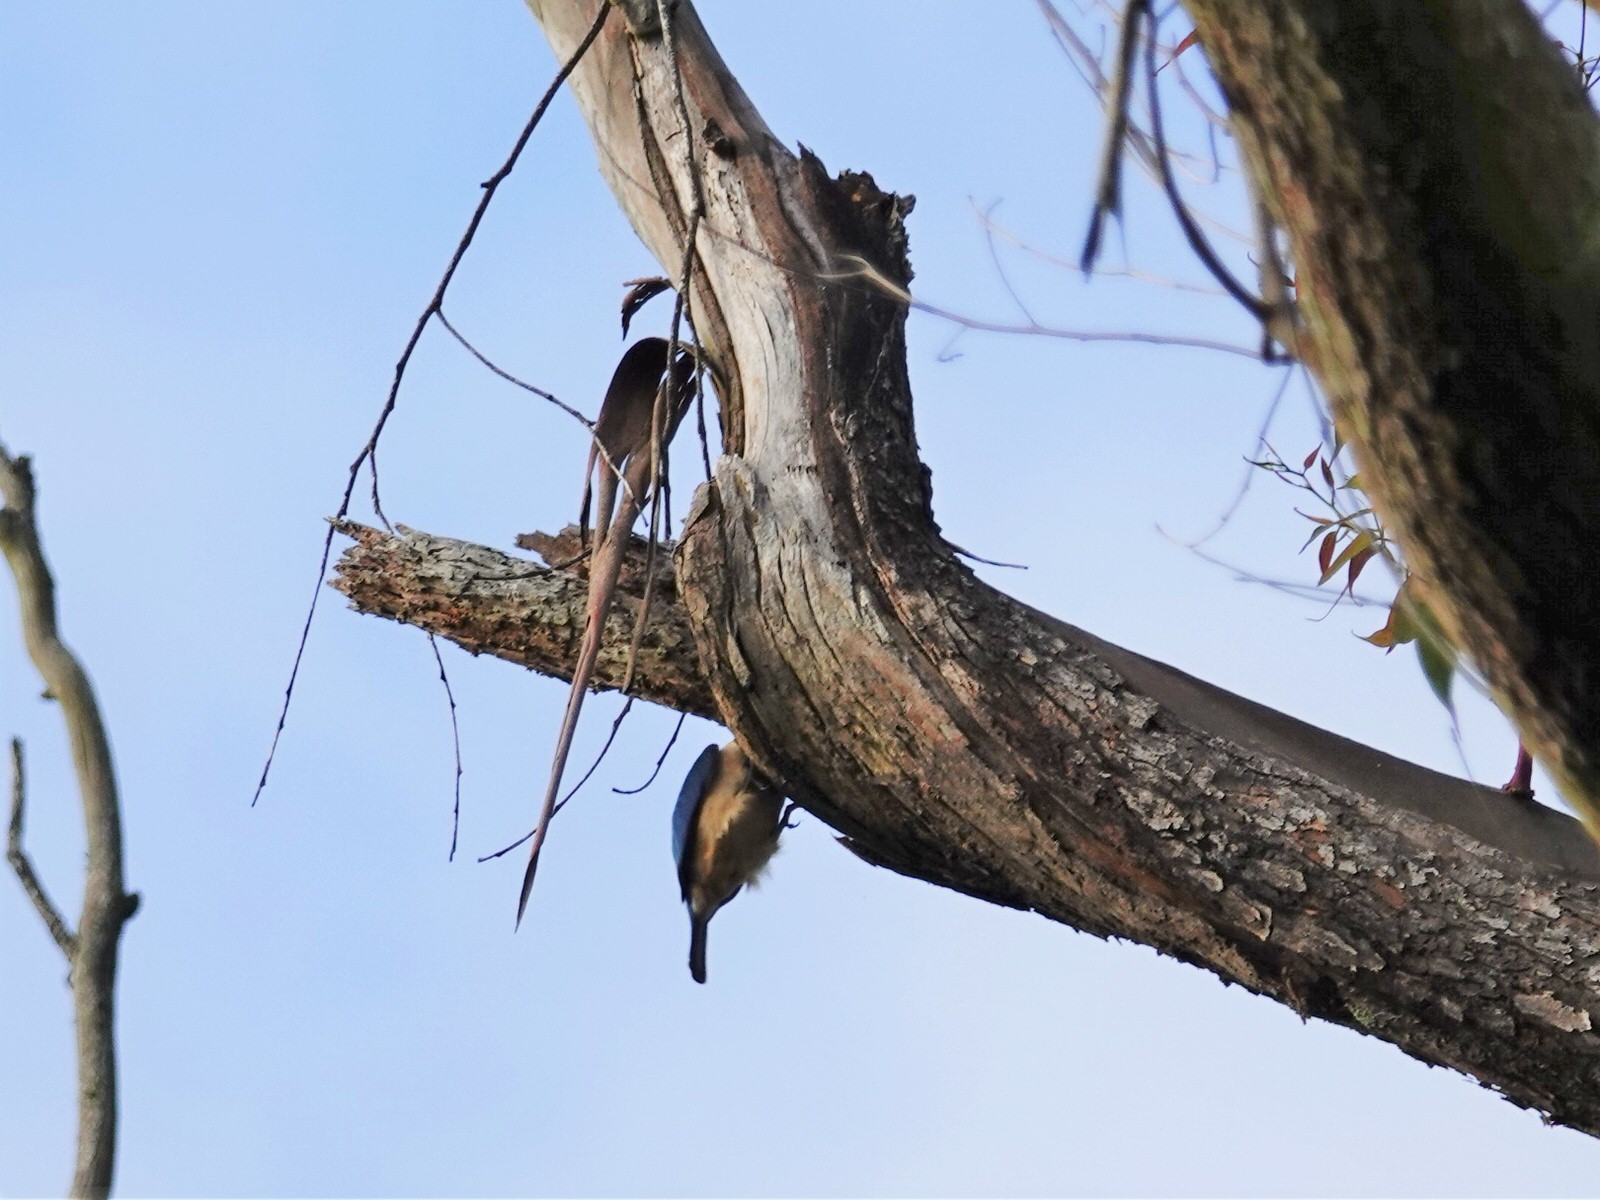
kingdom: Animalia
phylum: Chordata
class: Aves
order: Coraciiformes
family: Alcedinidae
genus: Todiramphus
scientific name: Todiramphus sanctus
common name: Sacred kingfisher
